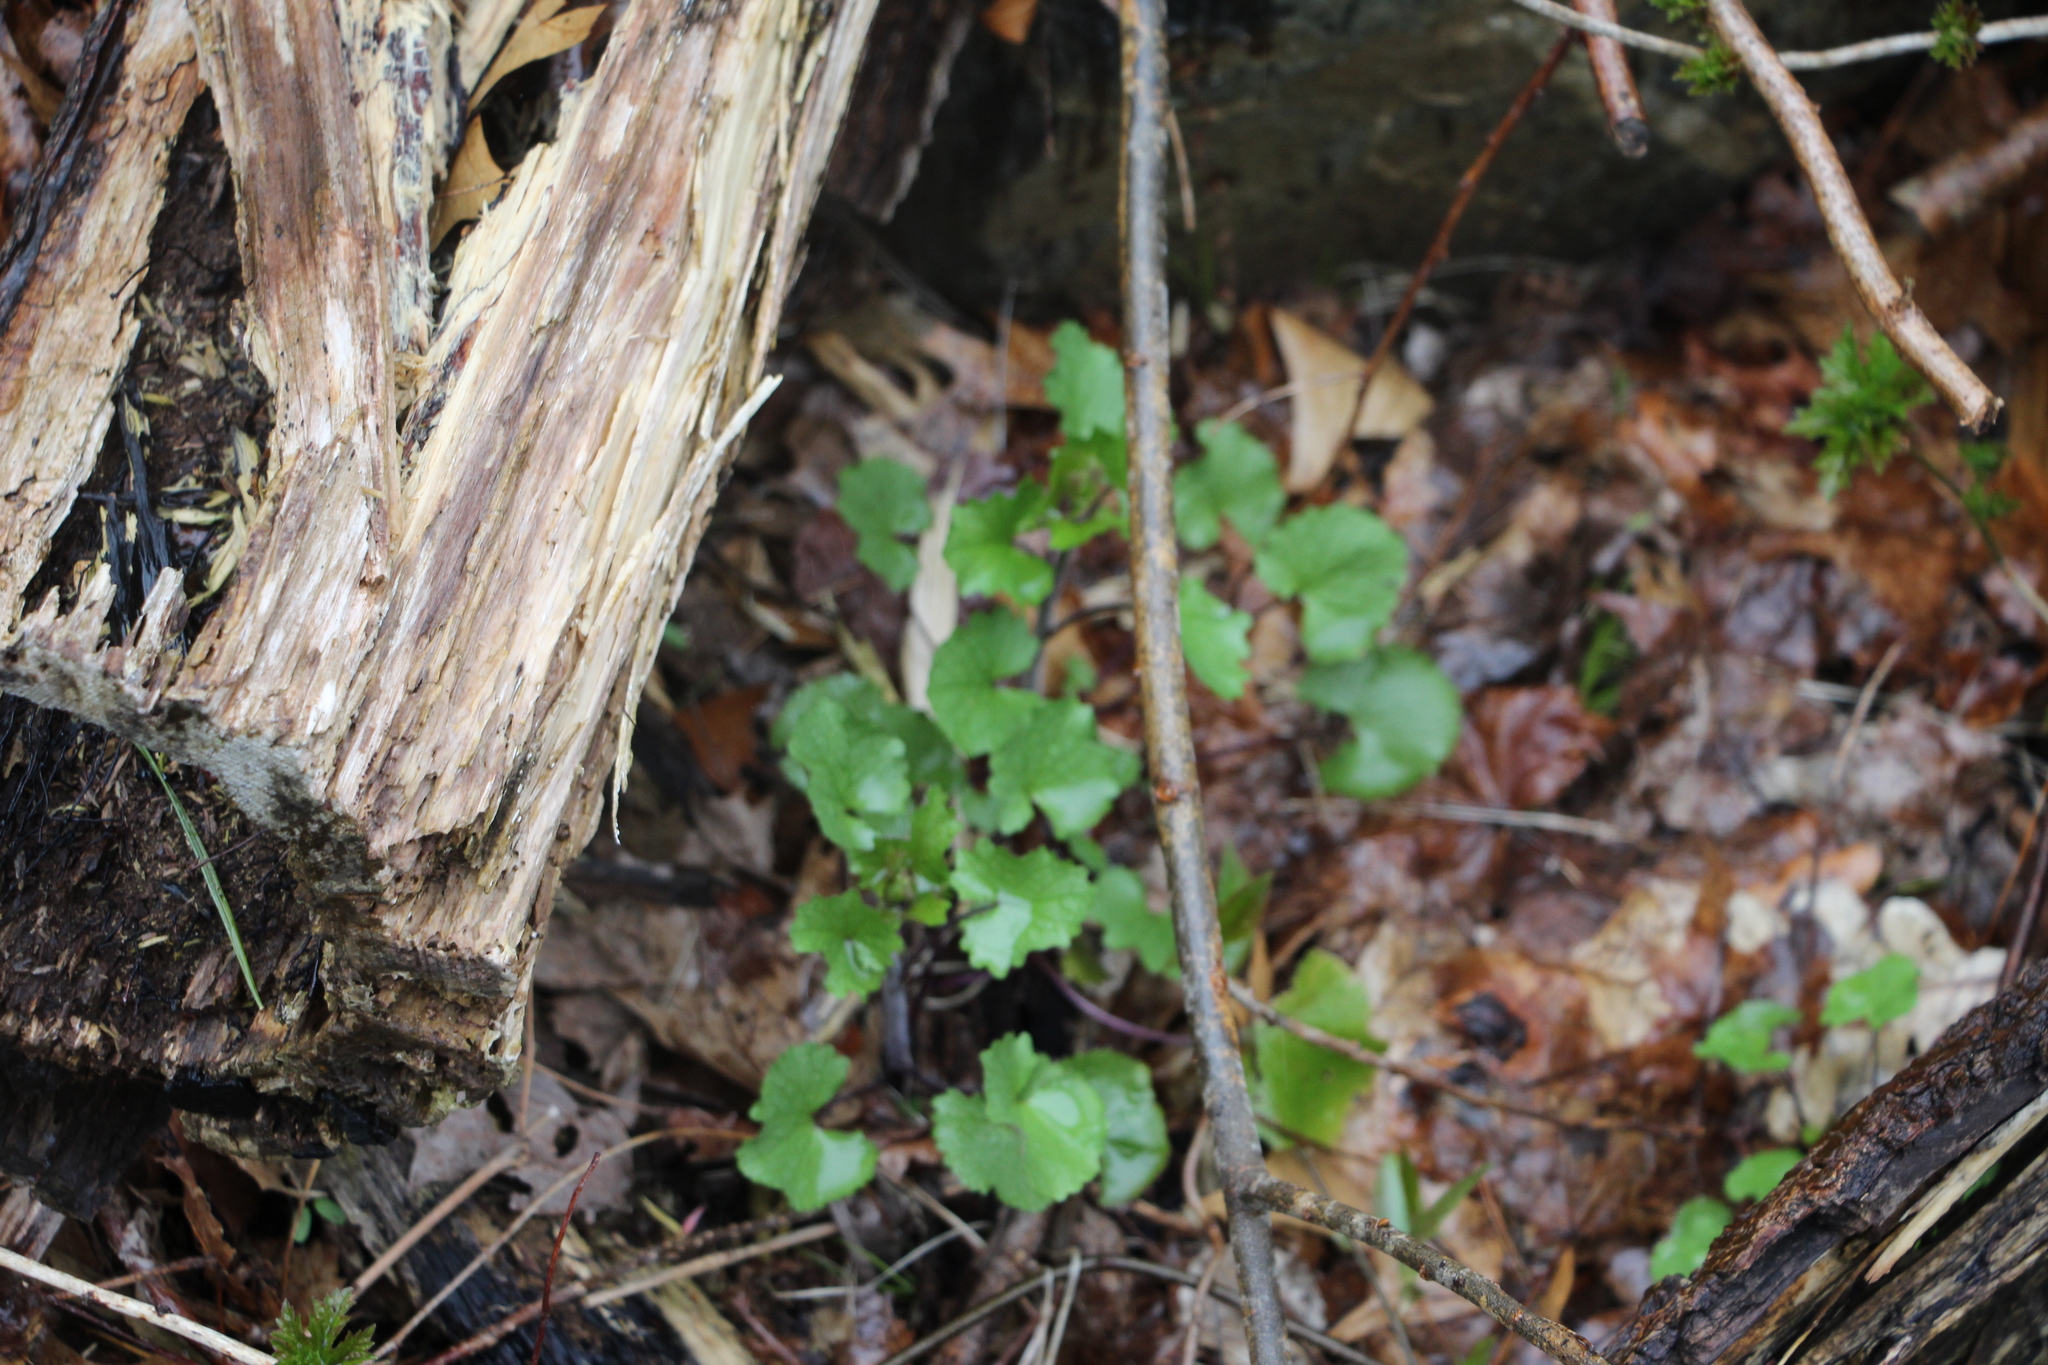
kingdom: Plantae
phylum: Tracheophyta
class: Magnoliopsida
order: Brassicales
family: Brassicaceae
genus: Alliaria
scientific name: Alliaria petiolata
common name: Garlic mustard
